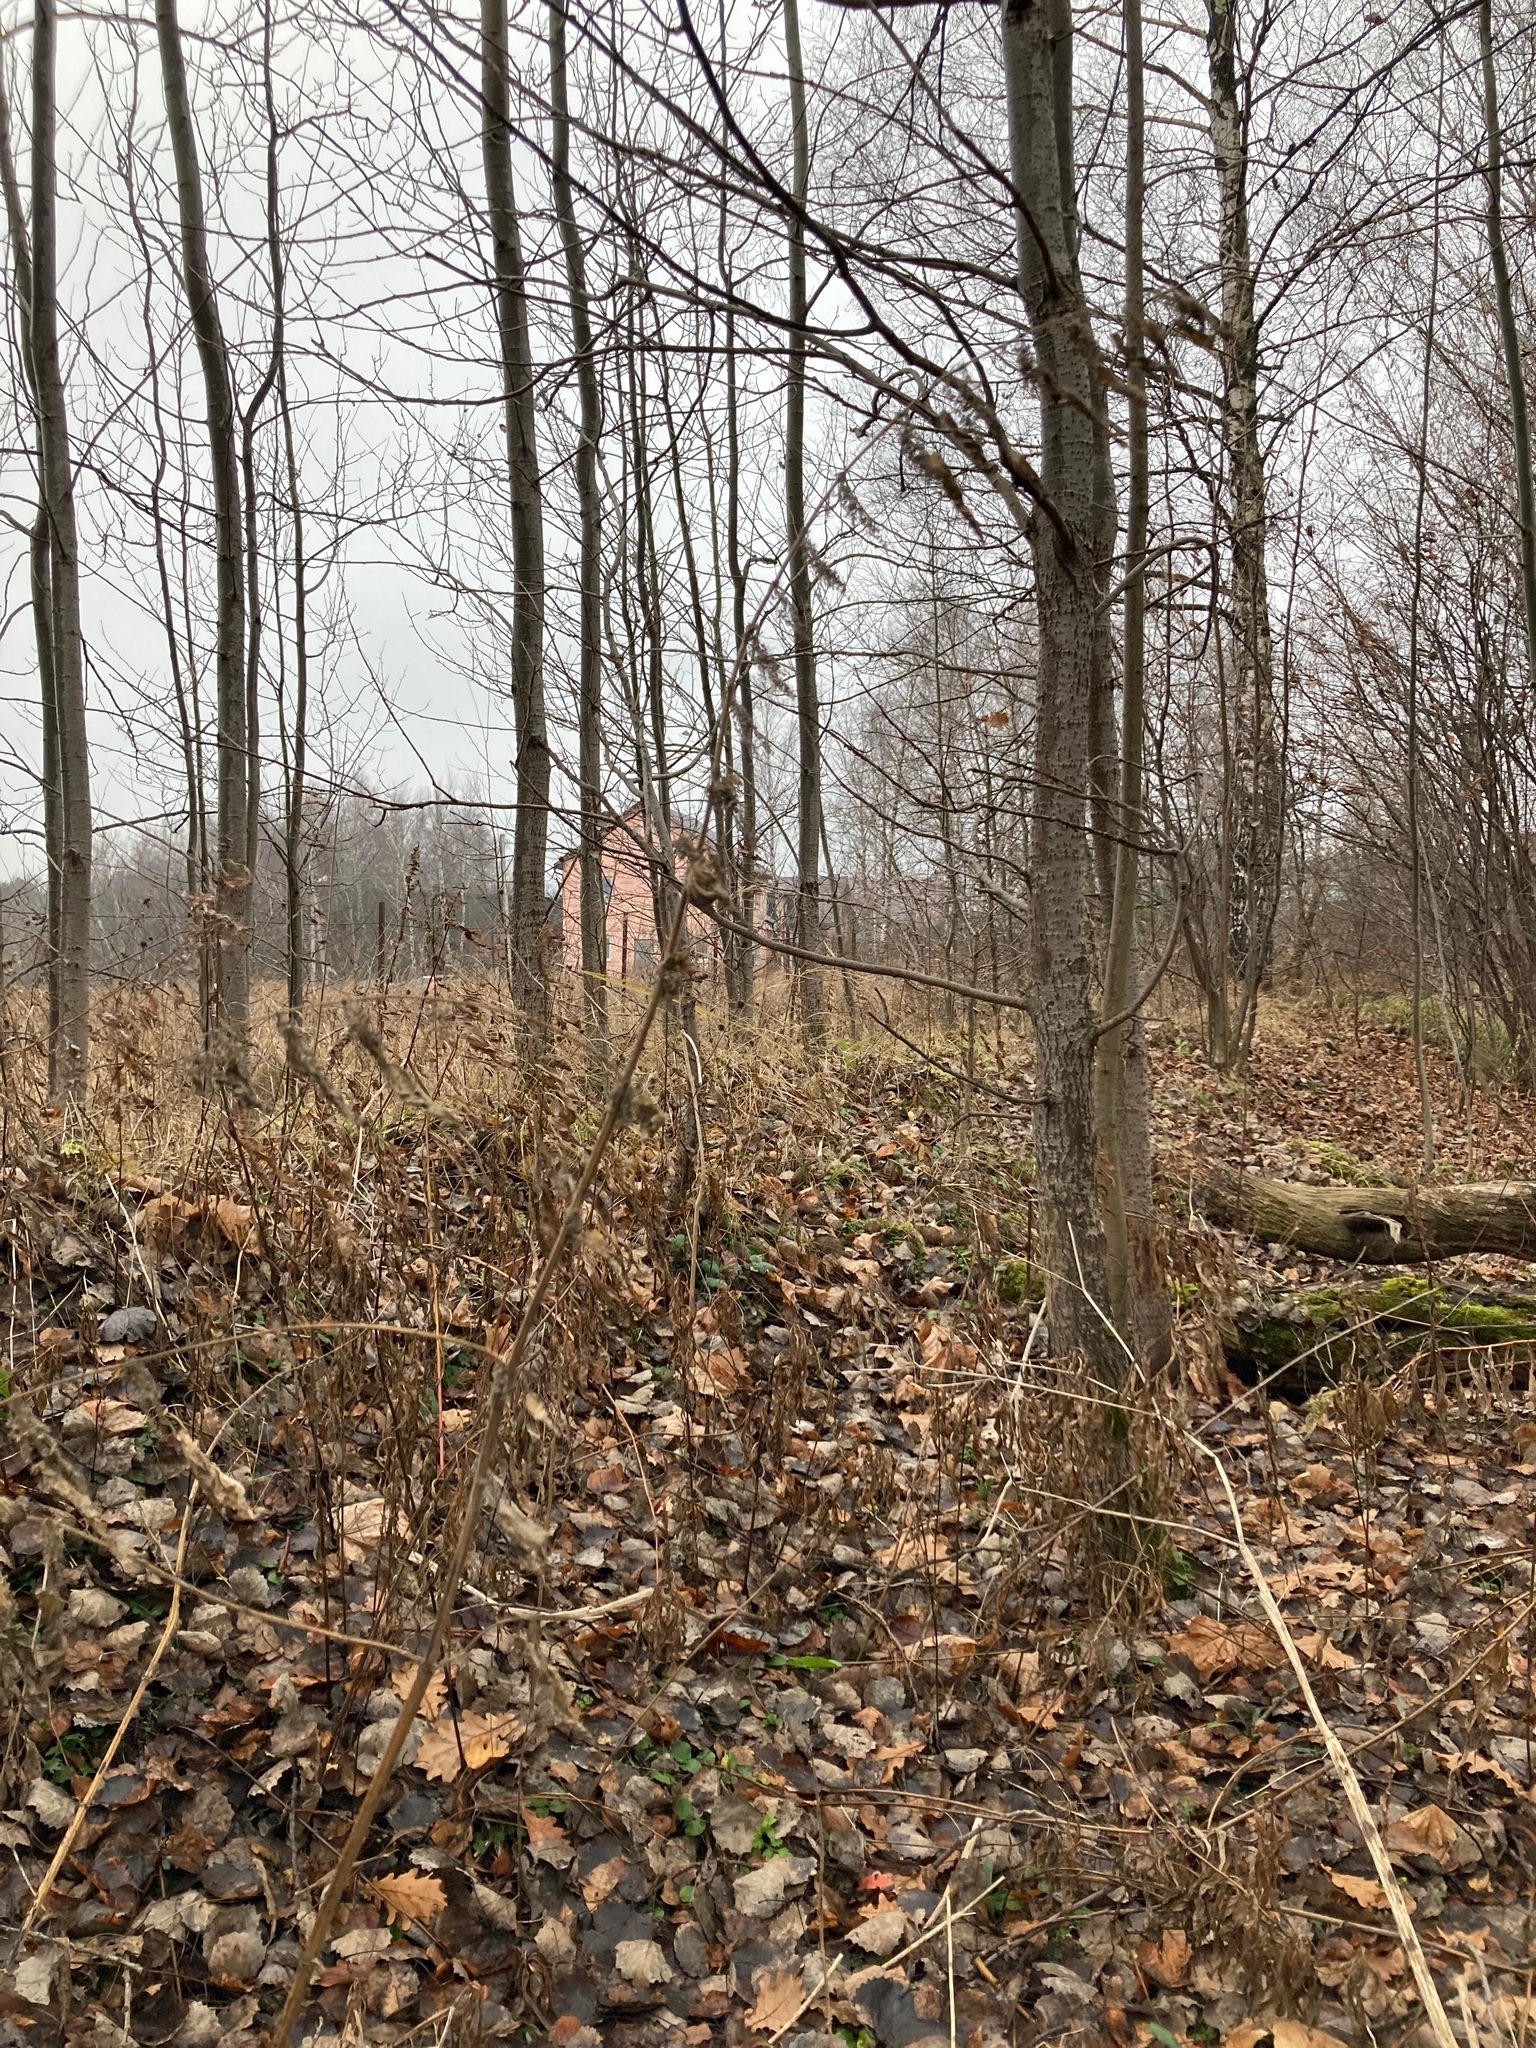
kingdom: Plantae
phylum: Tracheophyta
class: Magnoliopsida
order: Rosales
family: Urticaceae
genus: Urtica
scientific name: Urtica dioica
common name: Common nettle
